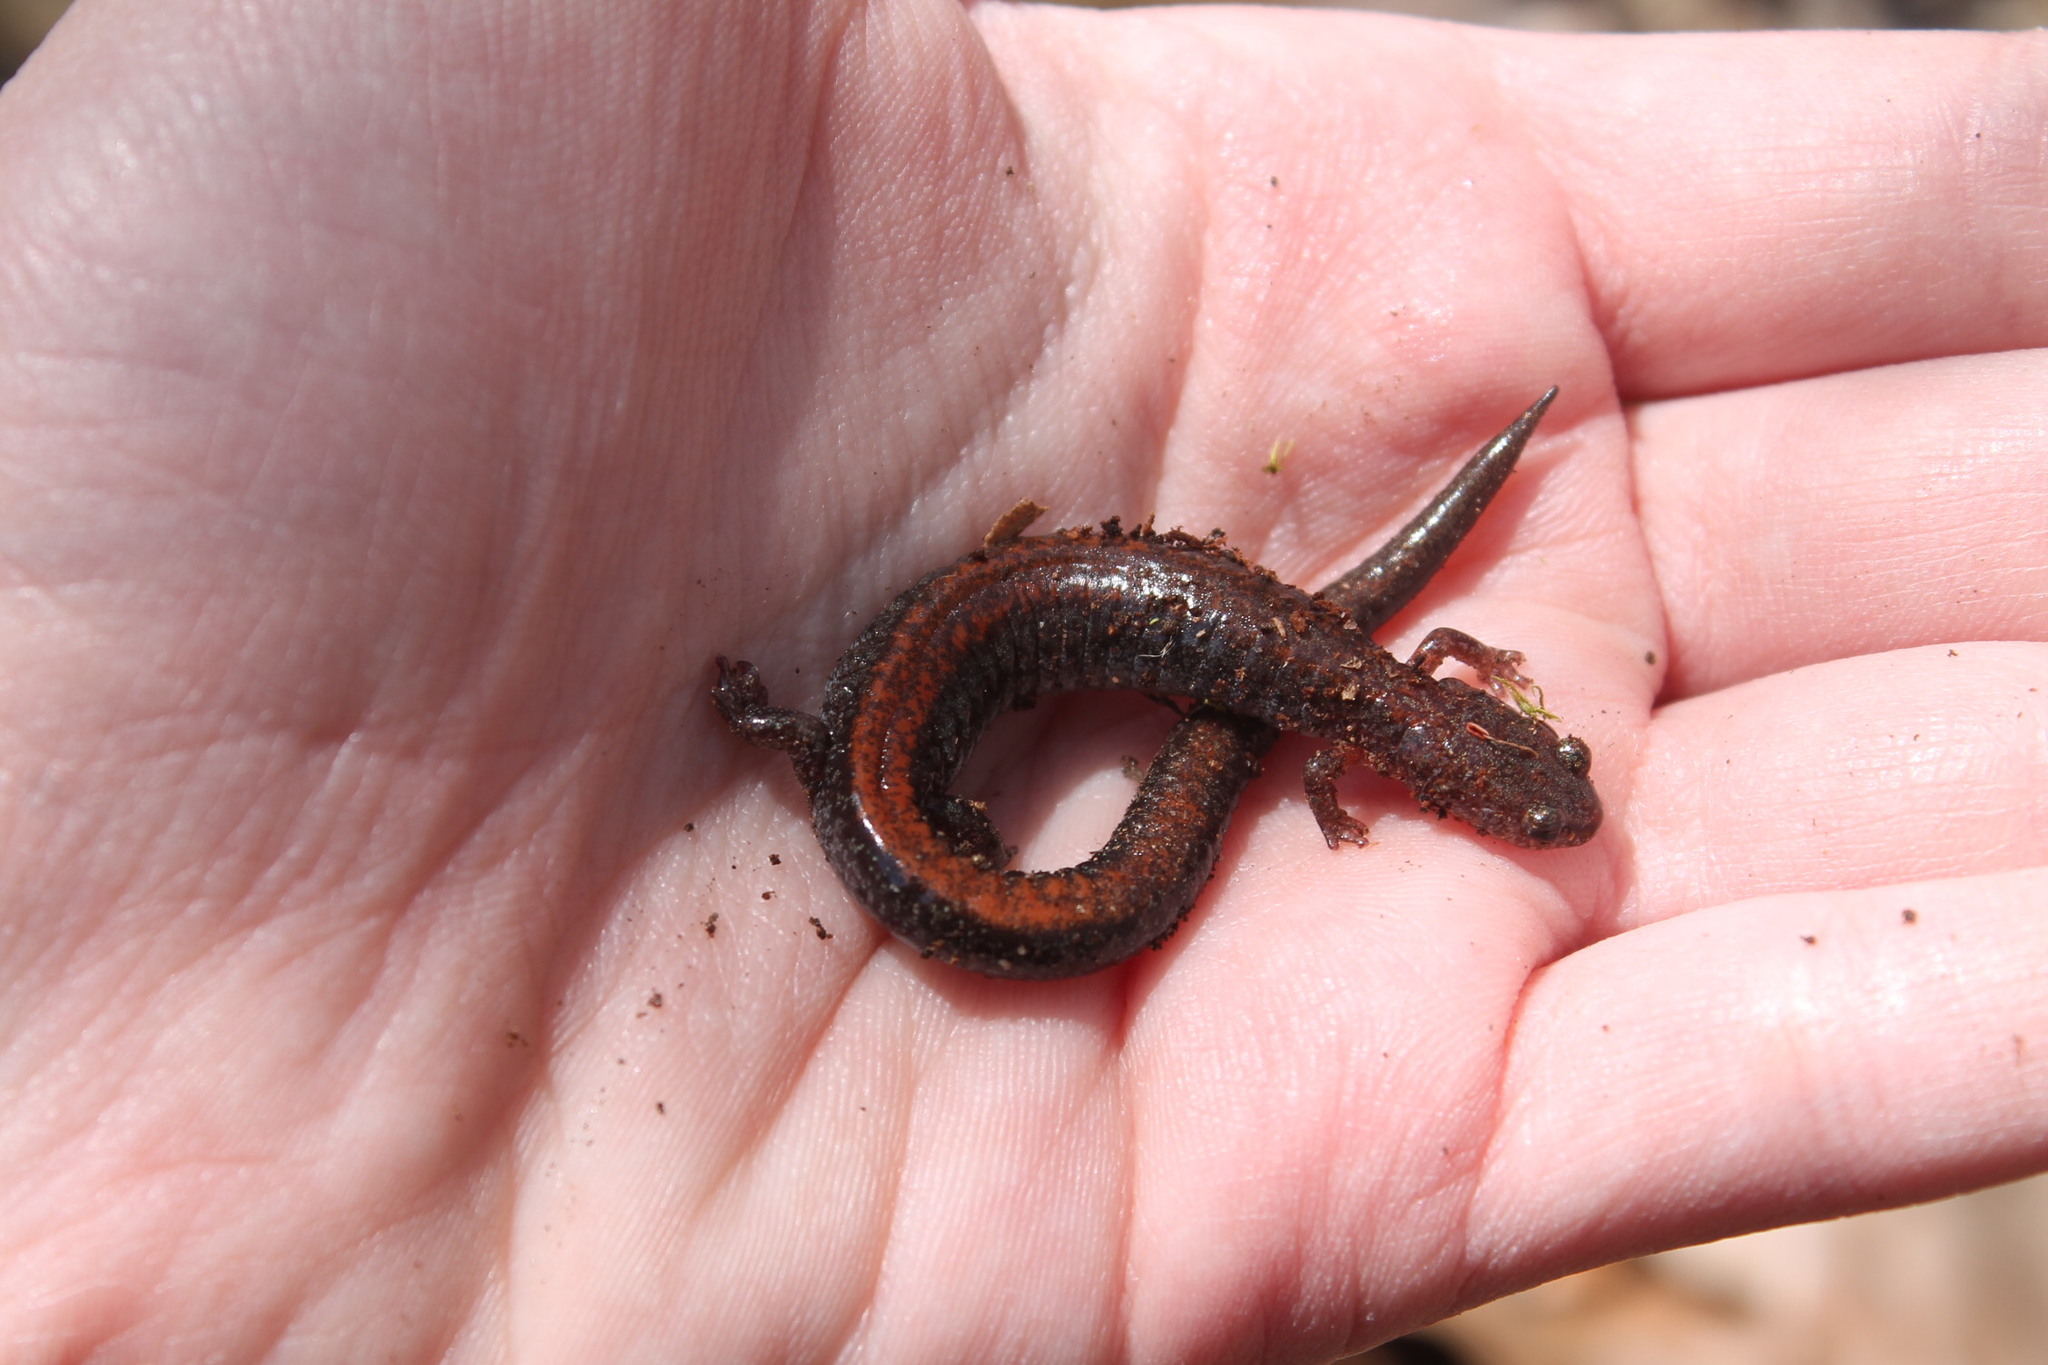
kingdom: Animalia
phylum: Chordata
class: Amphibia
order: Caudata
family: Plethodontidae
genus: Plethodon
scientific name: Plethodon cinereus
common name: Redback salamander
